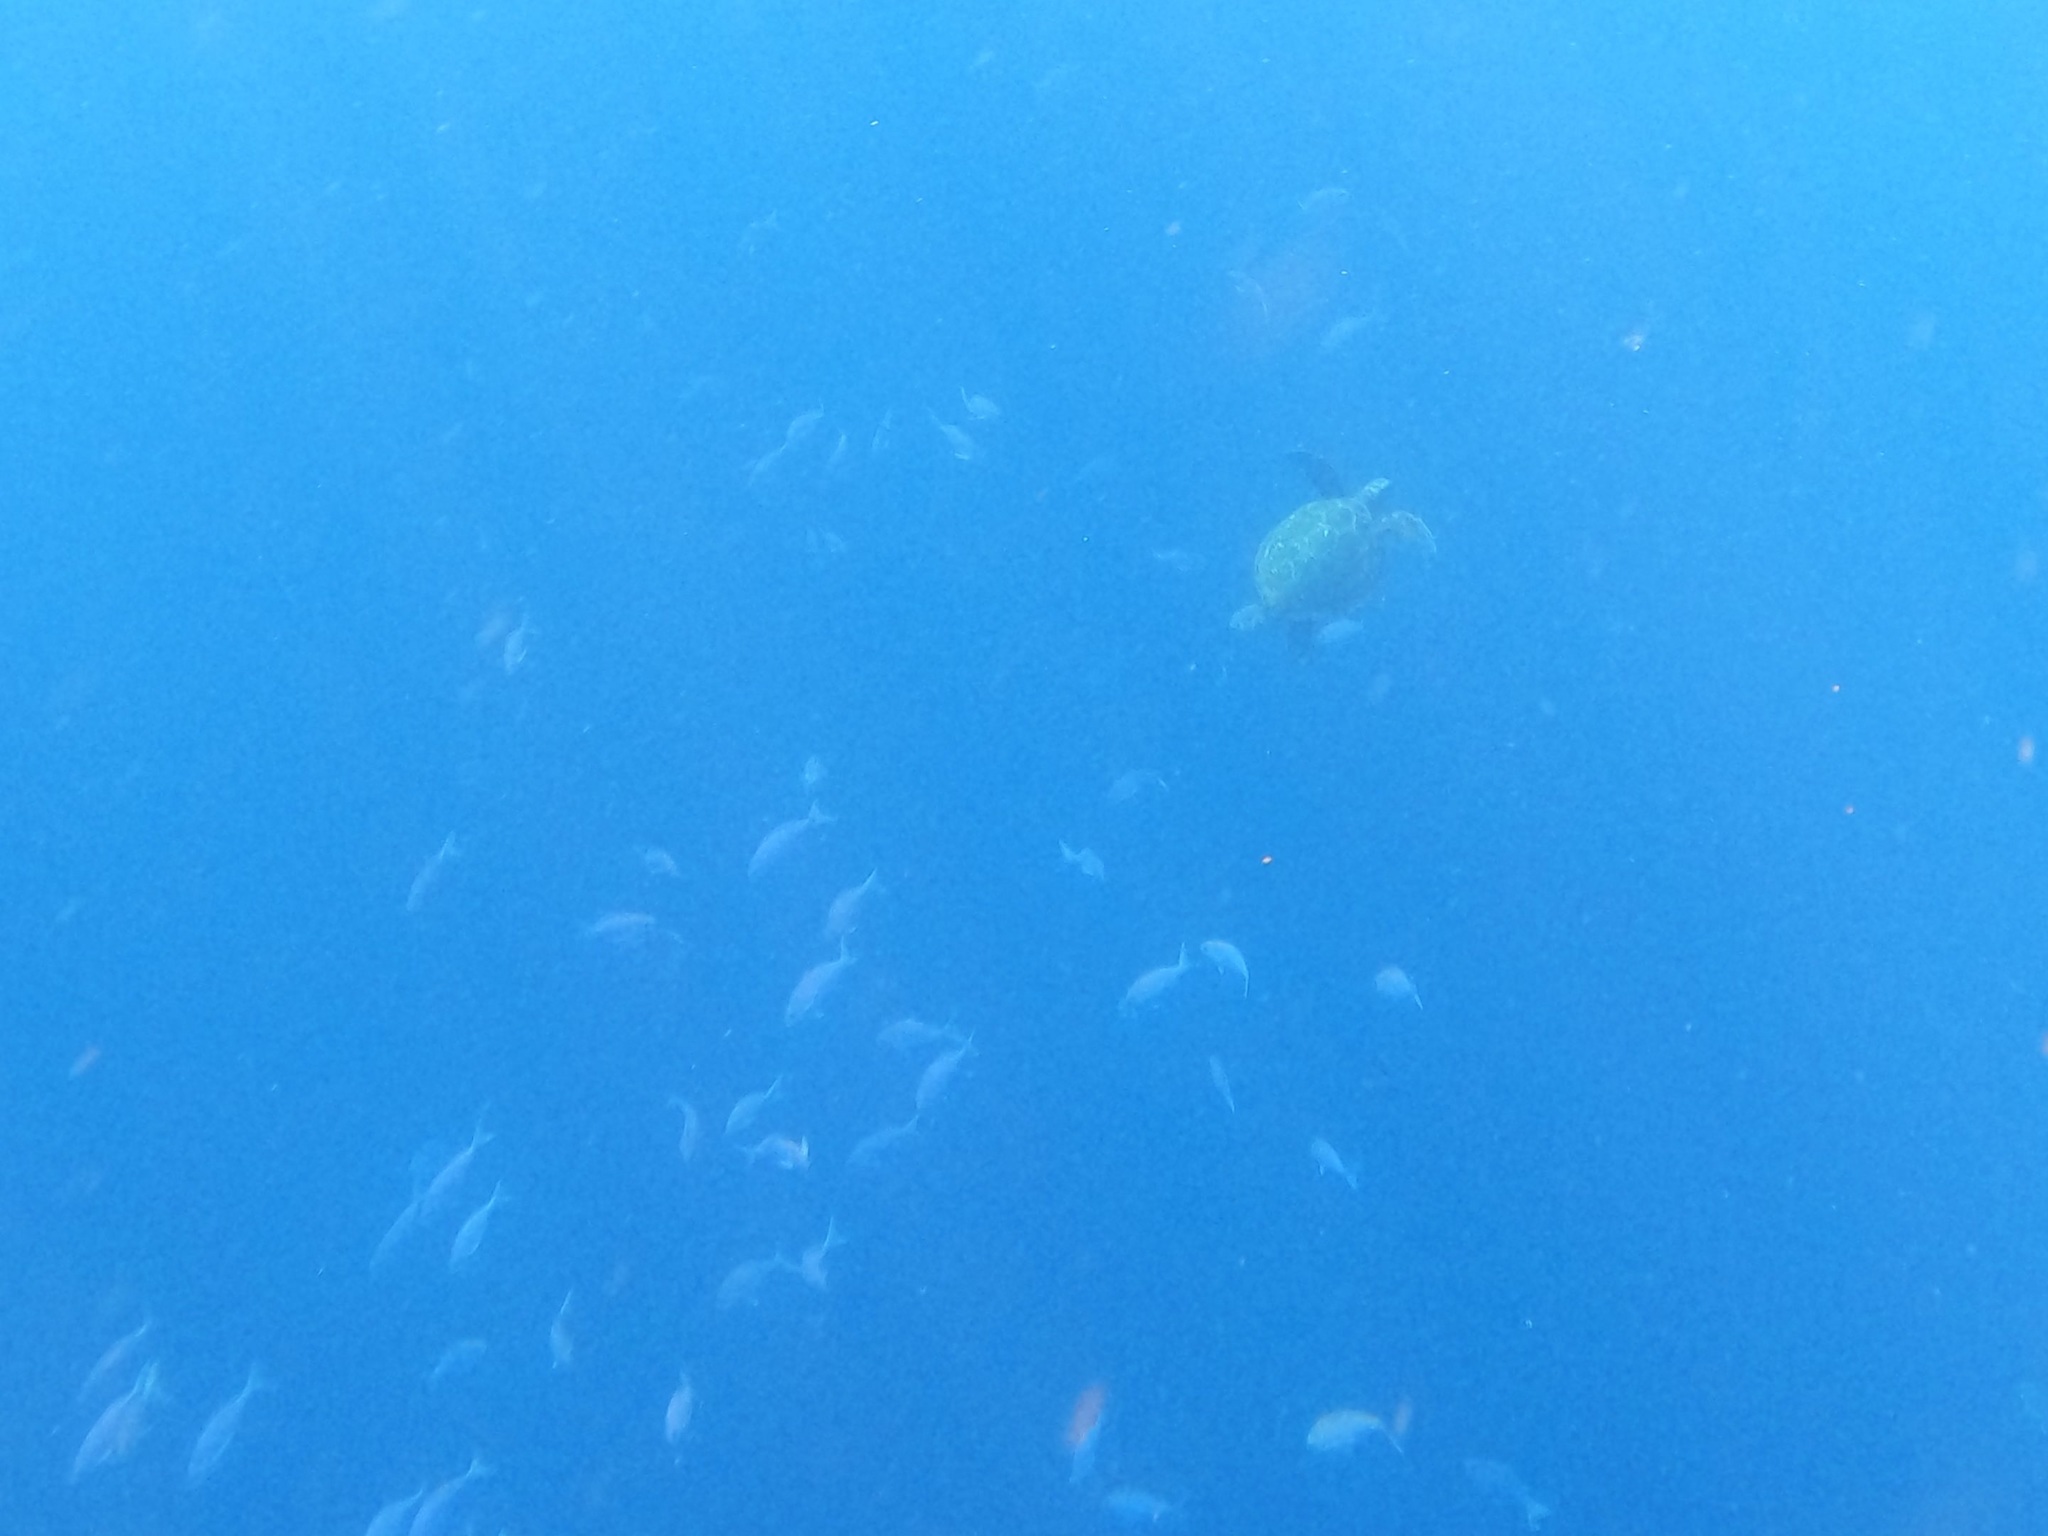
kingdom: Animalia
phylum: Chordata
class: Testudines
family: Cheloniidae
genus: Chelonia
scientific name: Chelonia mydas
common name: Green turtle
